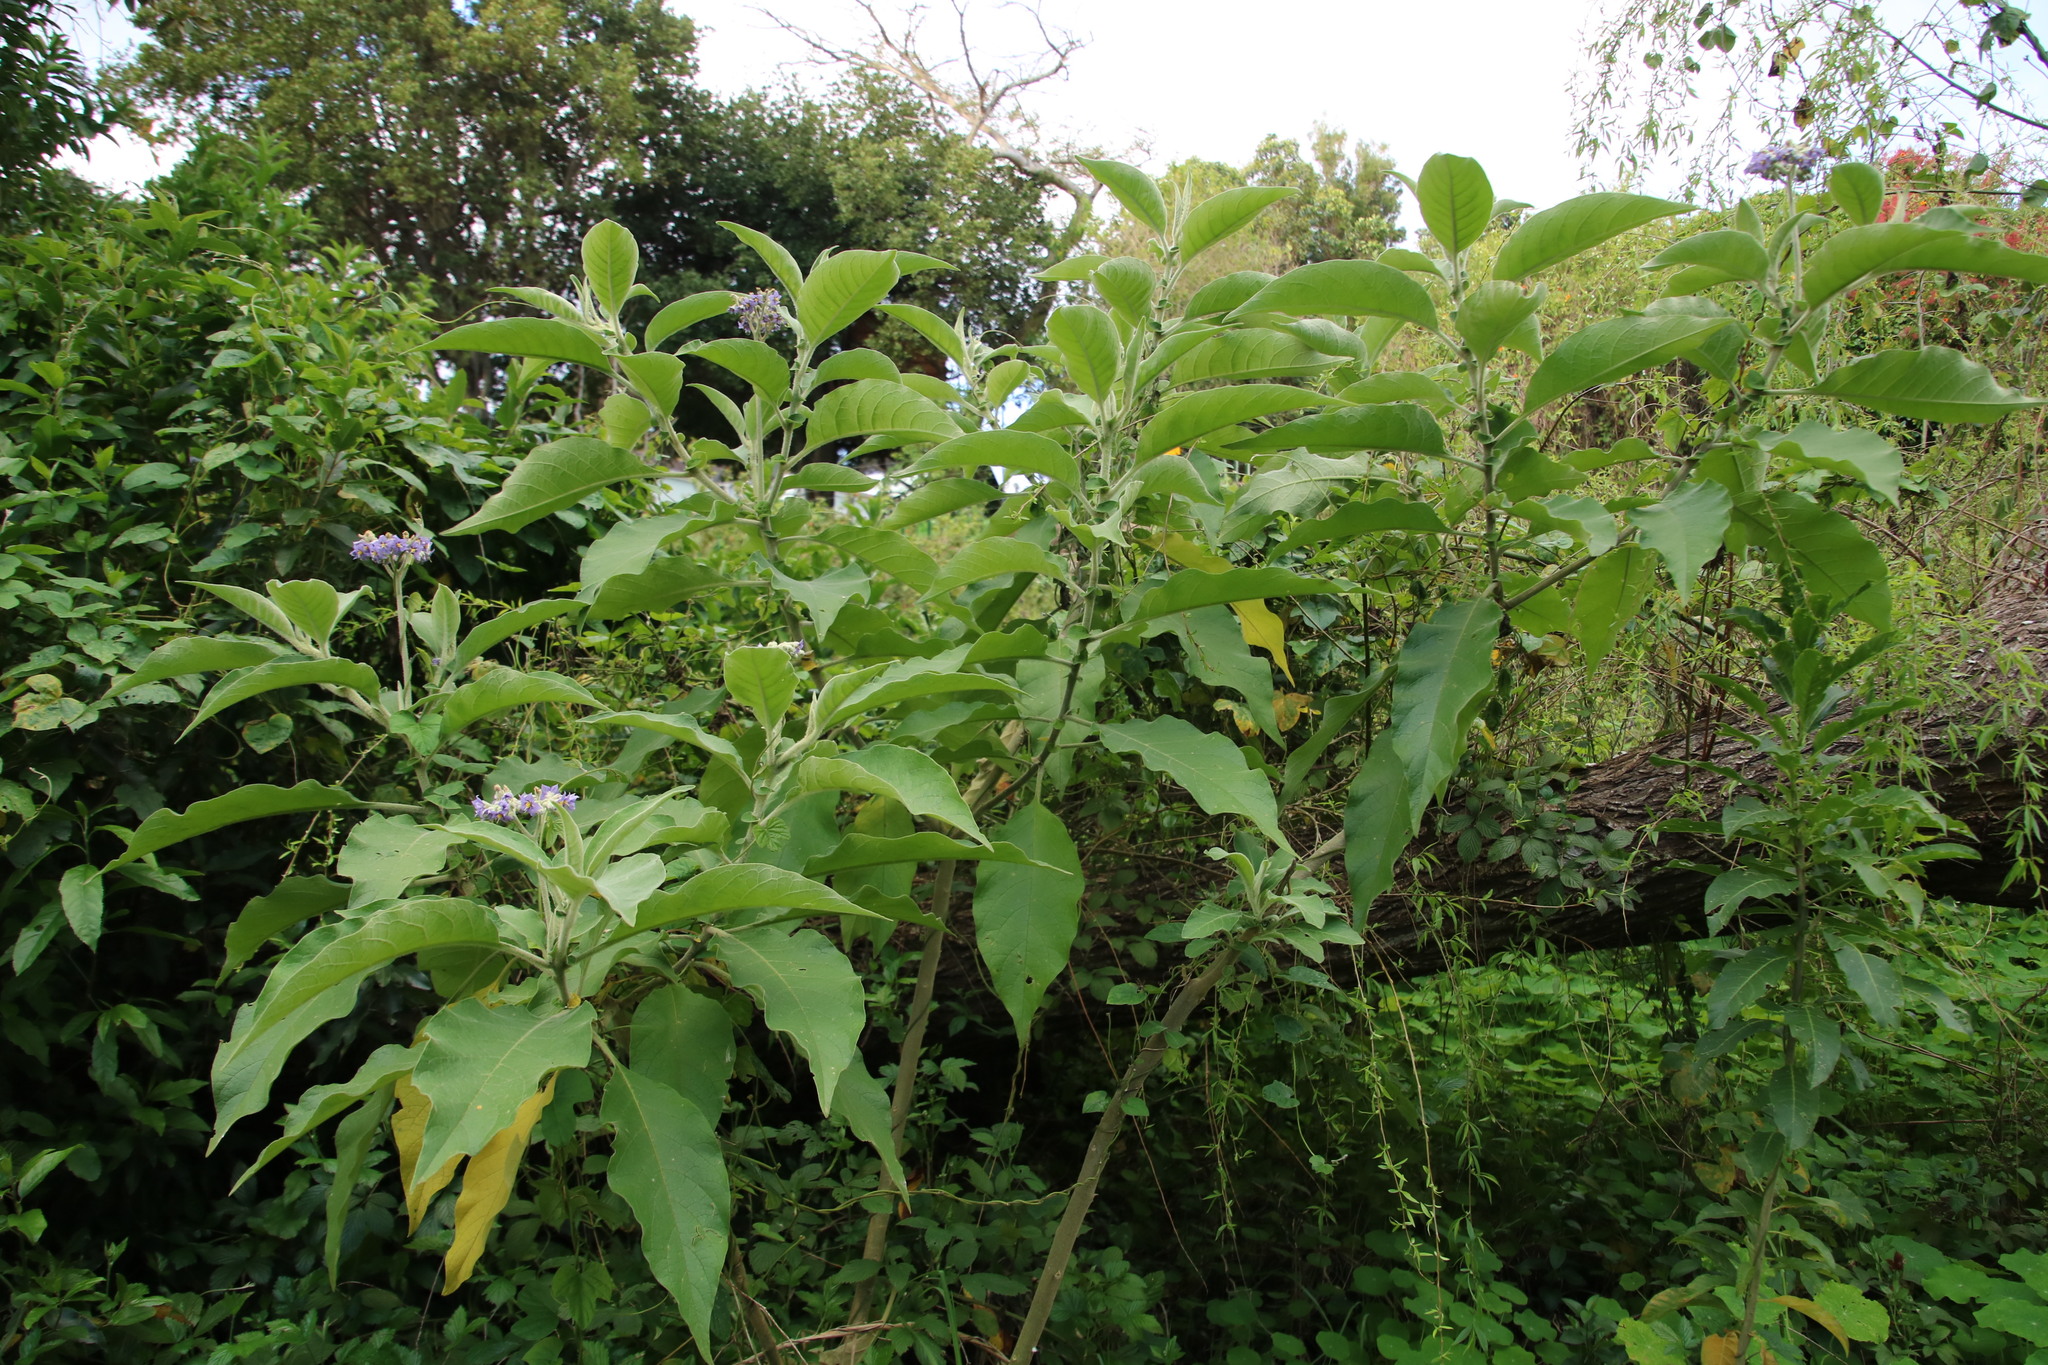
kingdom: Plantae
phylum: Tracheophyta
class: Magnoliopsida
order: Solanales
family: Solanaceae
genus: Solanum
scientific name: Solanum mauritianum
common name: Earleaf nightshade
